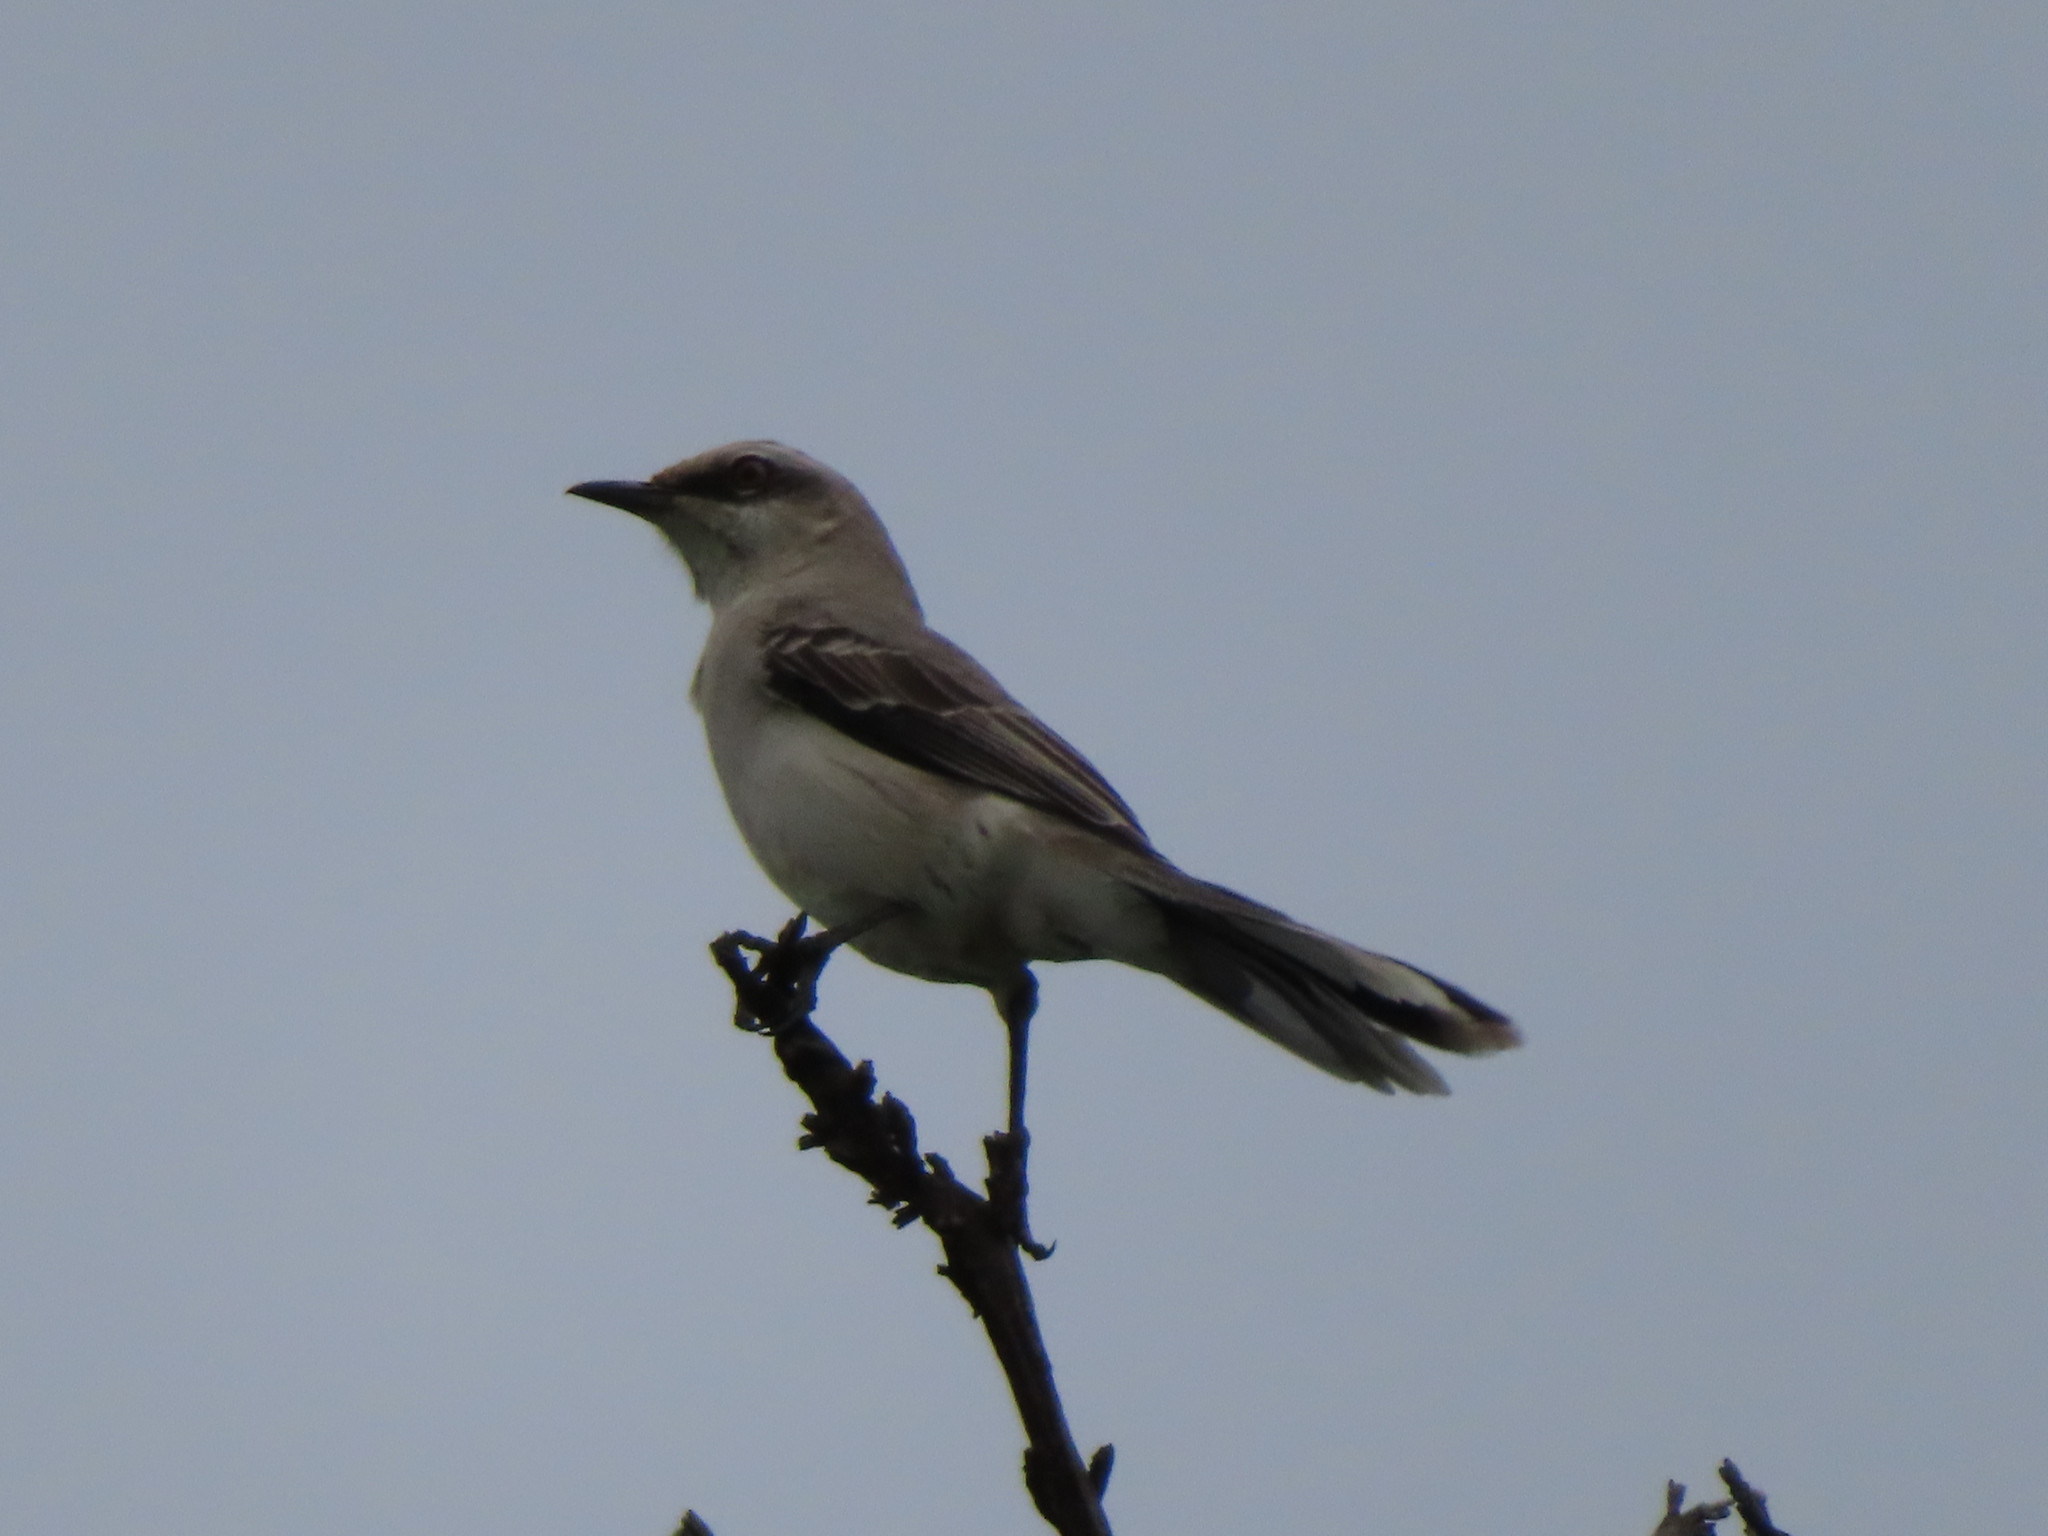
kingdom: Animalia
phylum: Chordata
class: Aves
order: Passeriformes
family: Mimidae
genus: Mimus
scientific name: Mimus gilvus
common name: Tropical mockingbird
